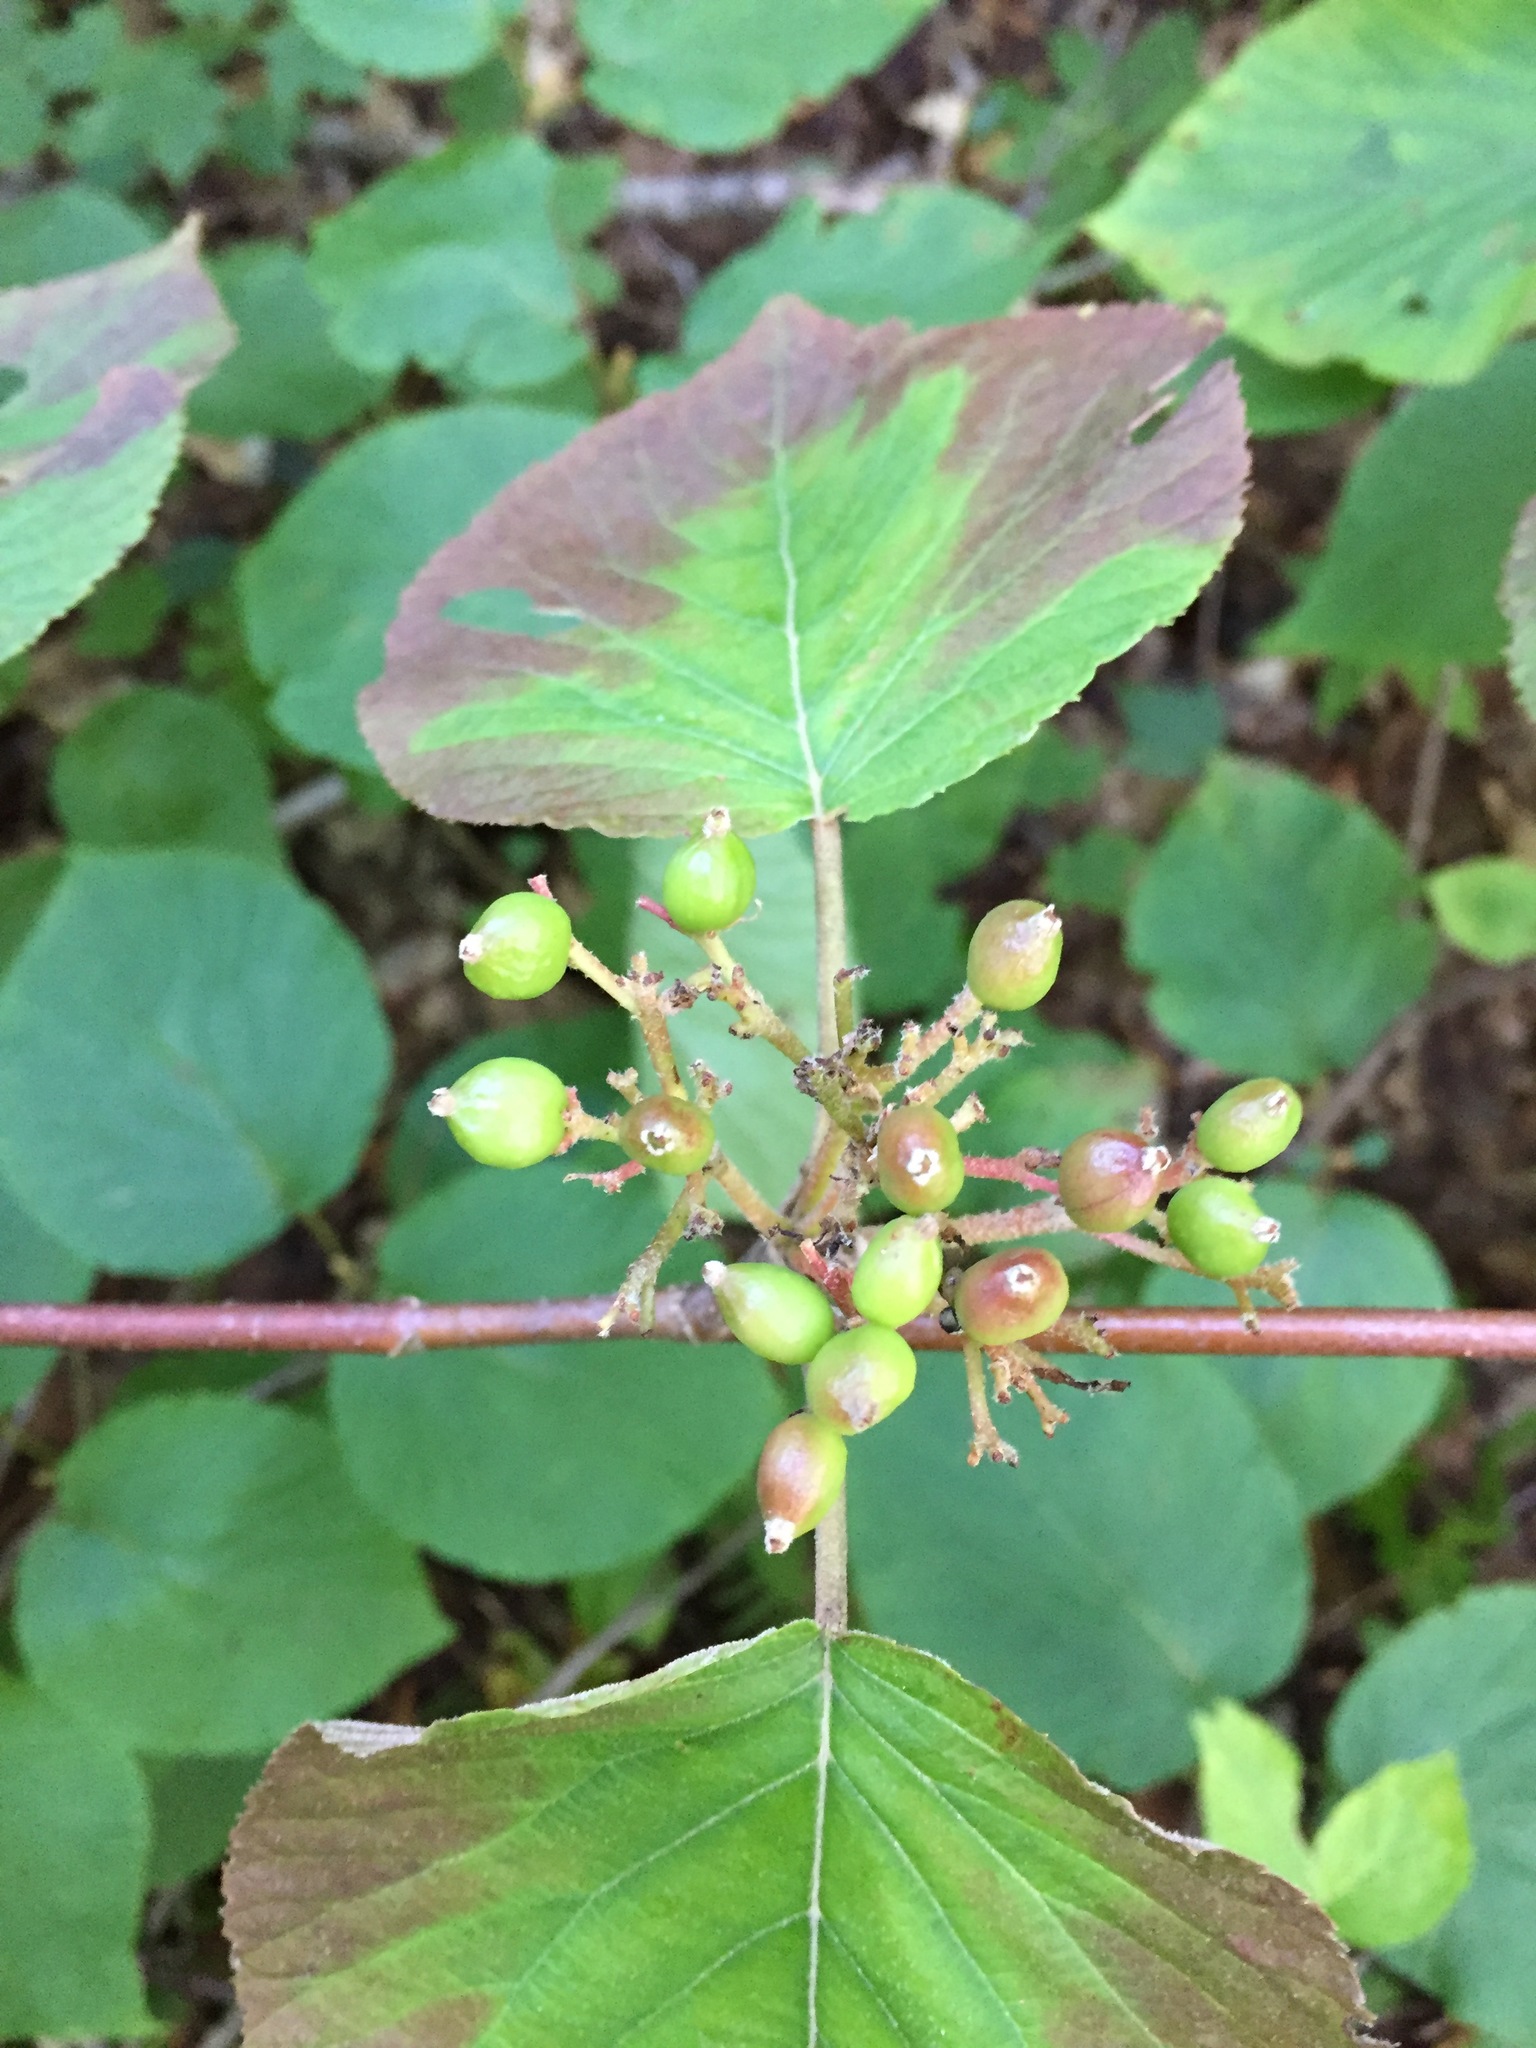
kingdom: Plantae
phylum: Tracheophyta
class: Magnoliopsida
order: Dipsacales
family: Viburnaceae
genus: Viburnum
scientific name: Viburnum lantanoides
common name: Hobblebush
